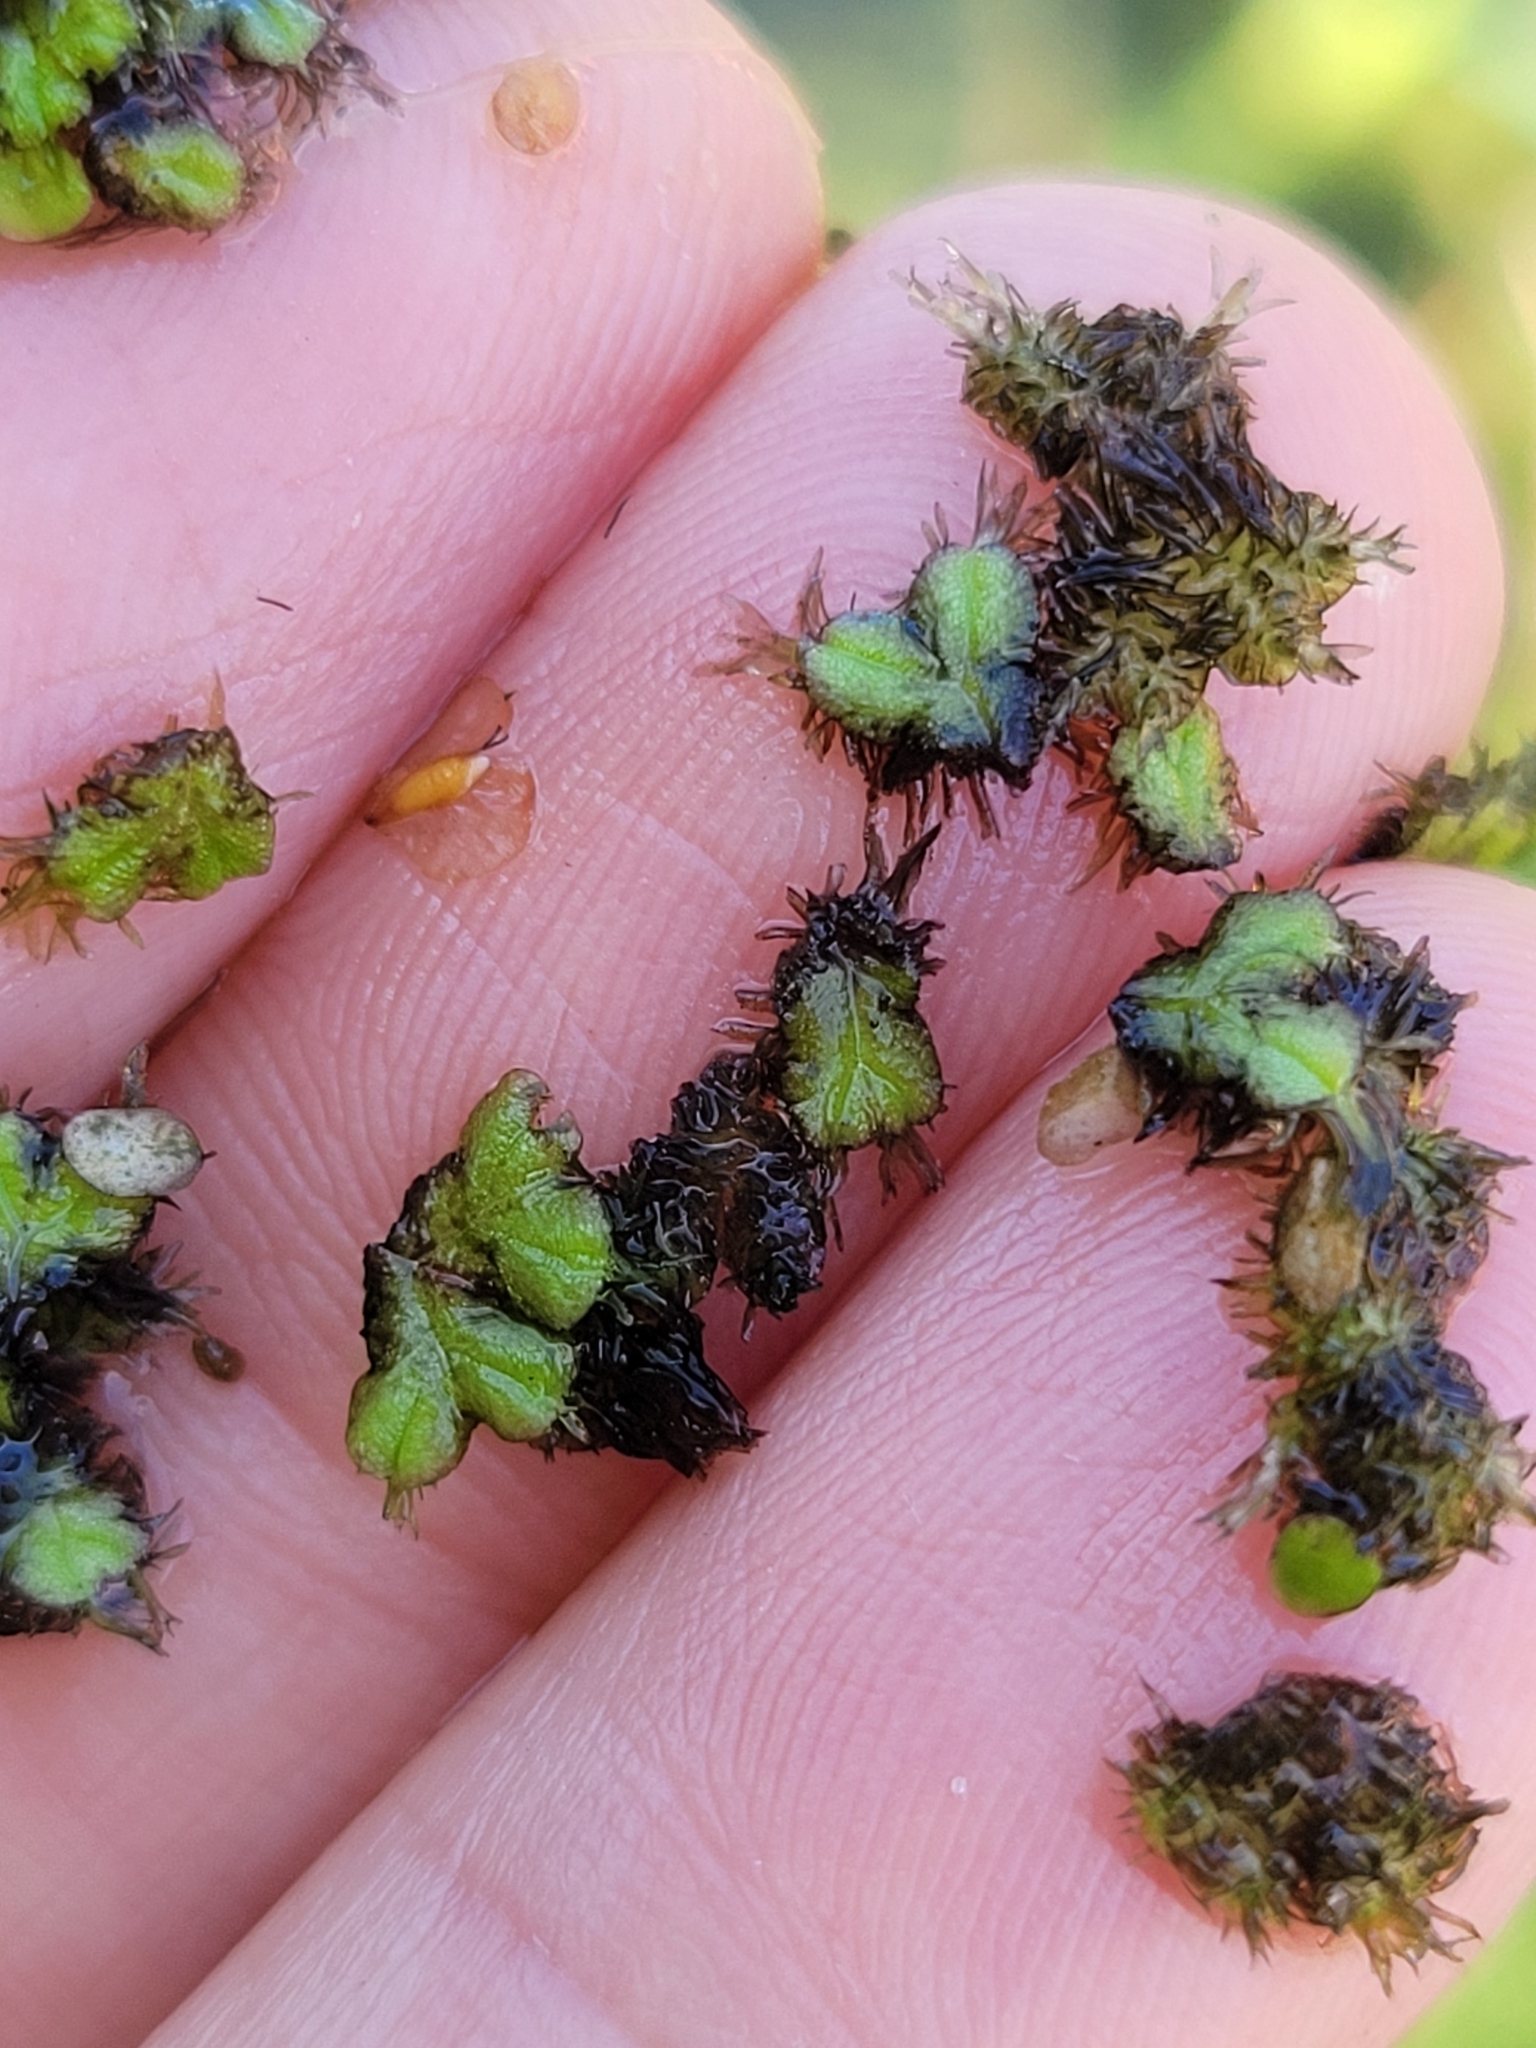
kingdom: Plantae
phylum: Marchantiophyta
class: Marchantiopsida
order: Marchantiales
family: Ricciaceae
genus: Ricciocarpos
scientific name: Ricciocarpos natans
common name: Purple-fringed liverwort
